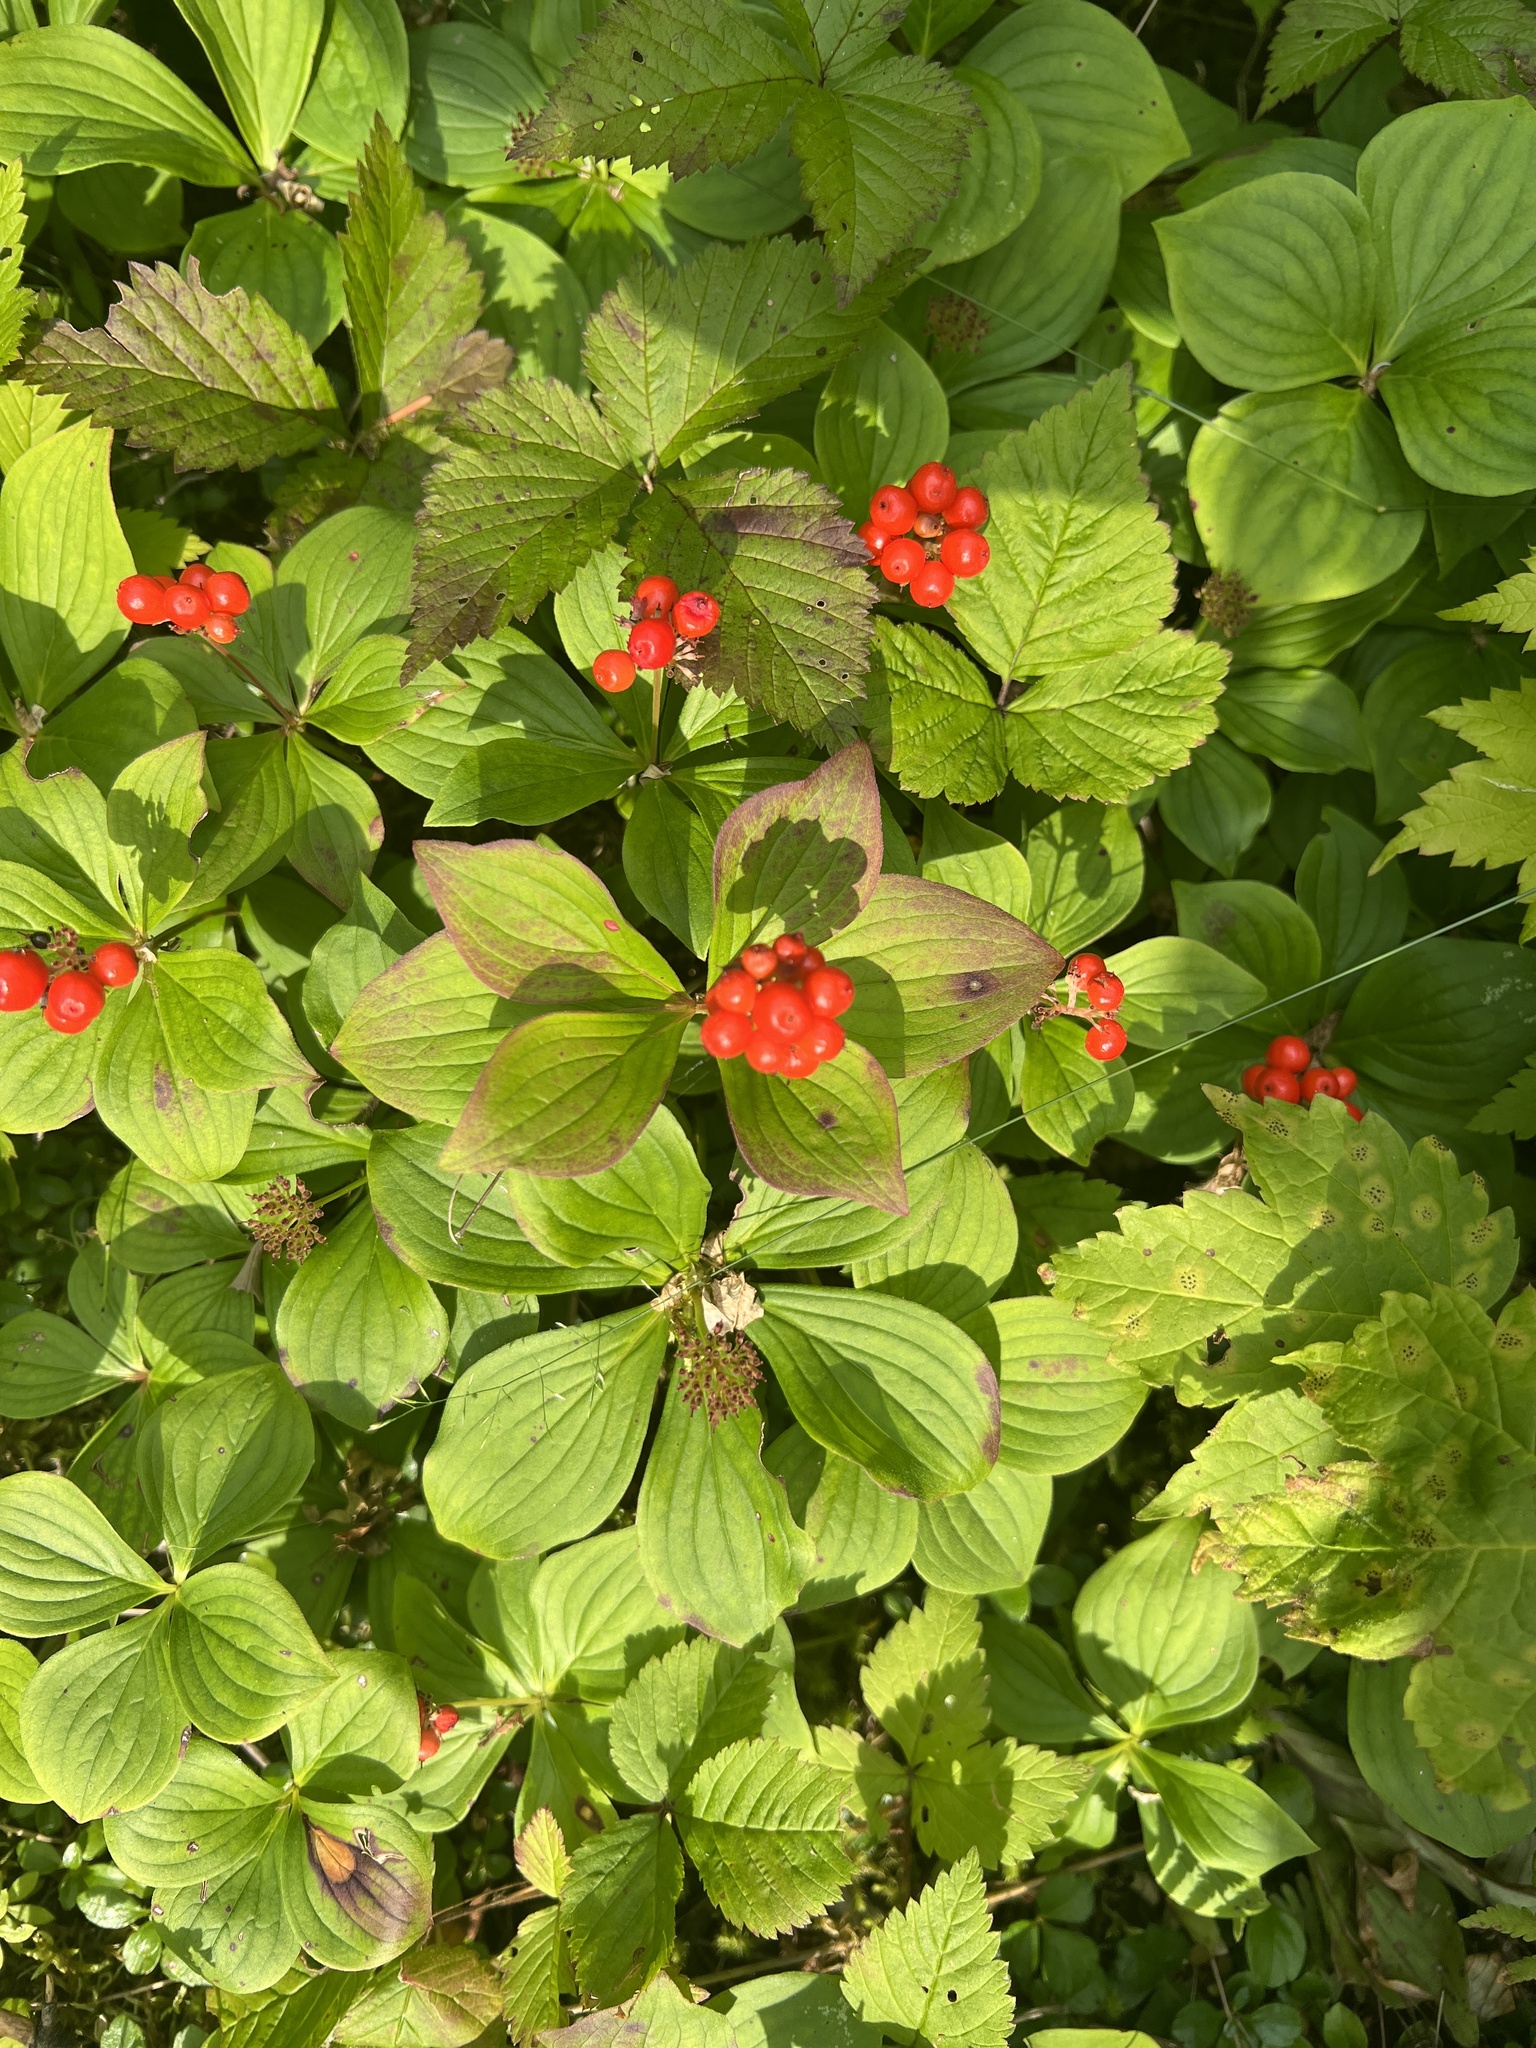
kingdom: Plantae
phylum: Tracheophyta
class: Magnoliopsida
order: Cornales
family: Cornaceae
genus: Cornus
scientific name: Cornus canadensis
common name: Creeping dogwood
